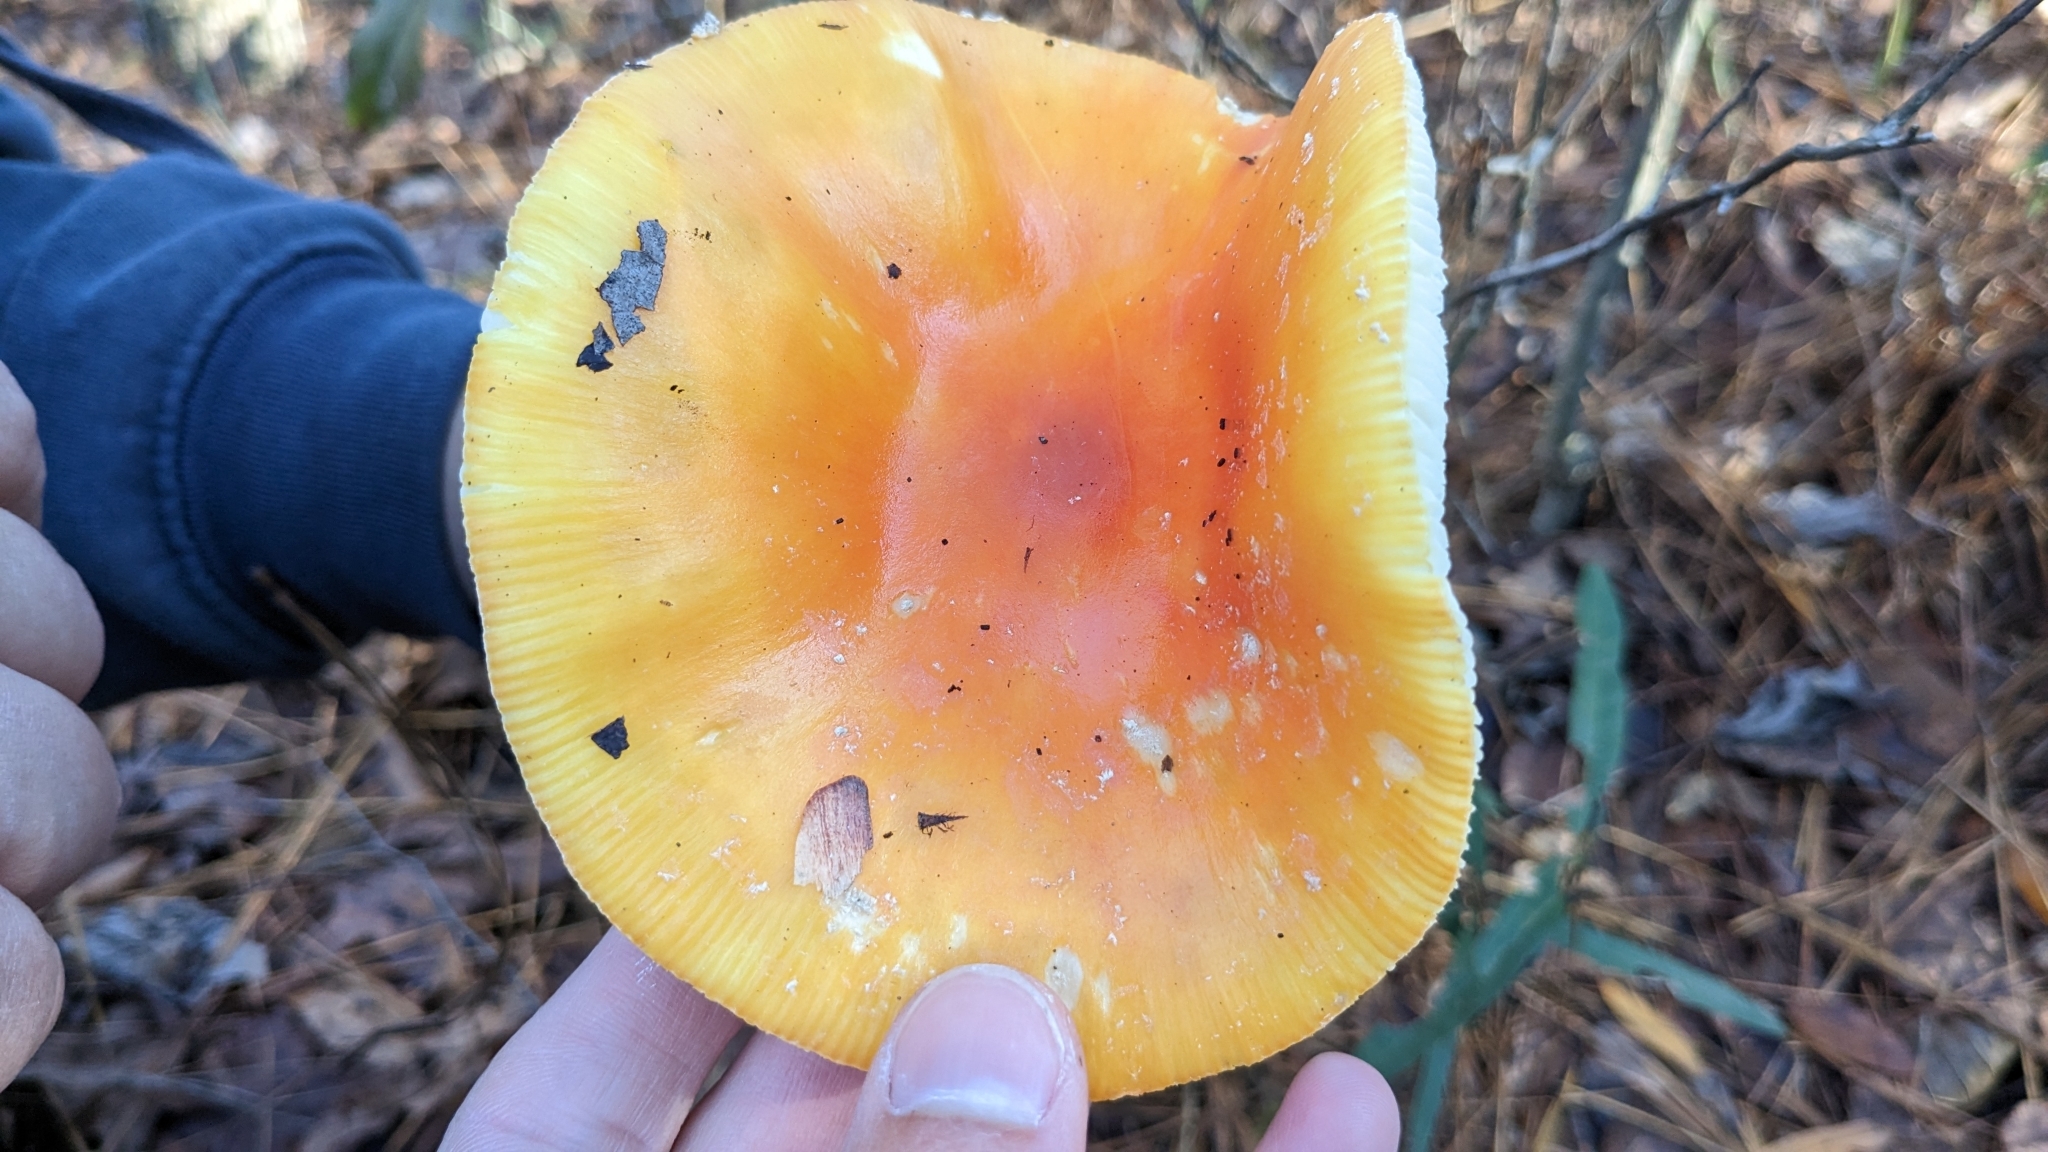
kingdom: Fungi
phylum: Basidiomycota
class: Agaricomycetes
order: Agaricales
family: Amanitaceae
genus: Amanita
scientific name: Amanita persicina
